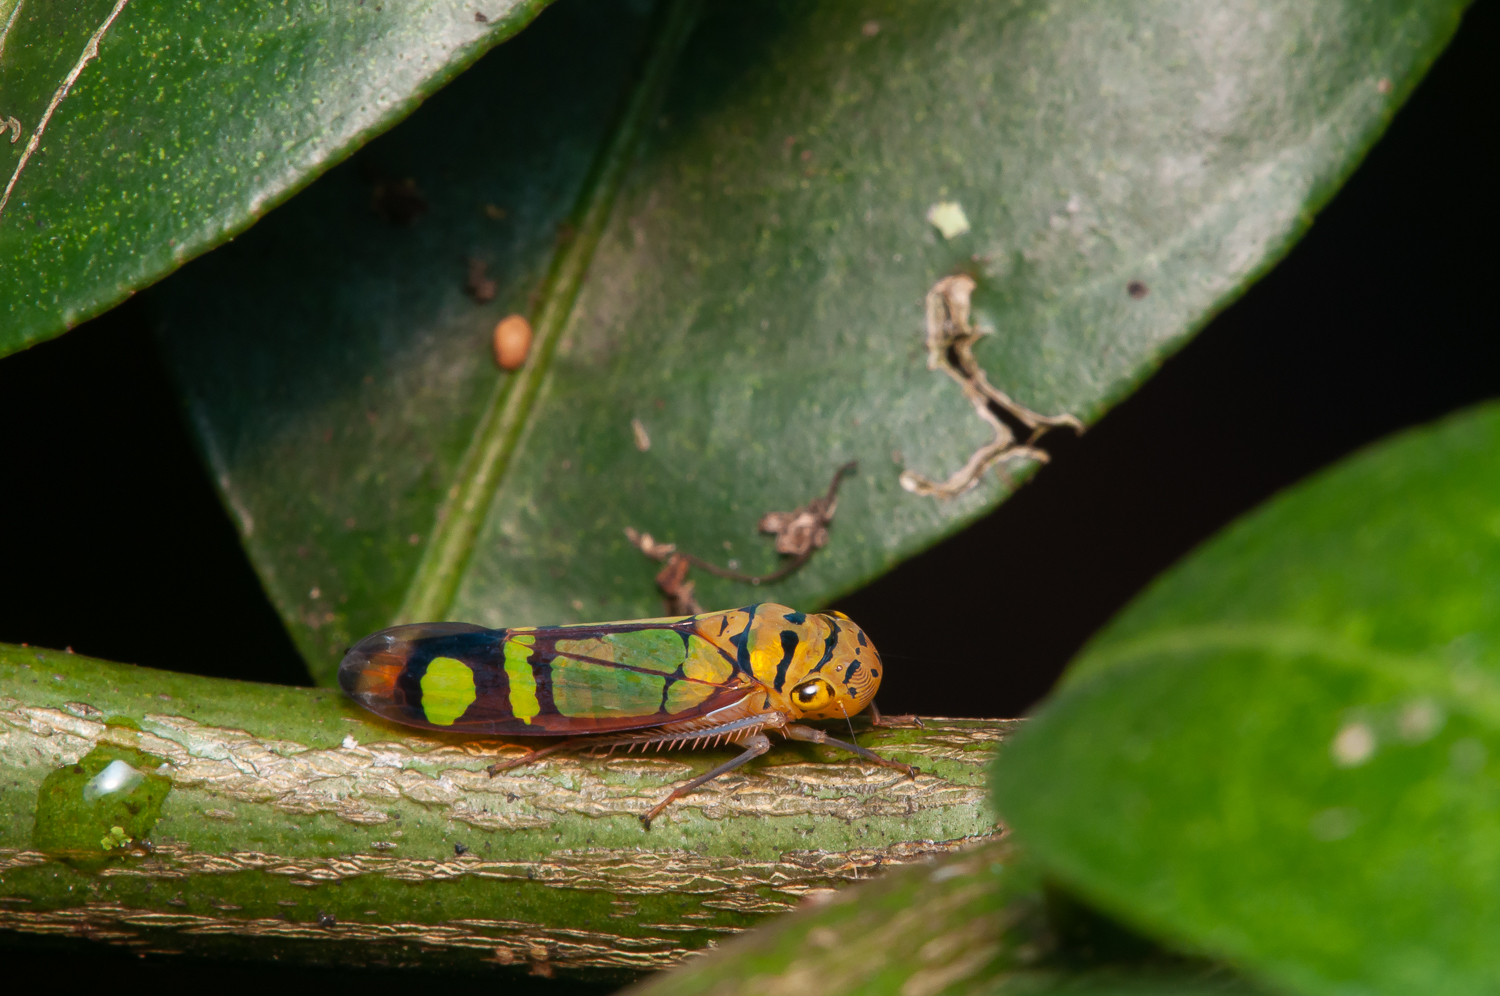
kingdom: Animalia
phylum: Arthropoda
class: Insecta
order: Hemiptera
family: Cicadellidae
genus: Dilobopterus
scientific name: Dilobopterus instratus
